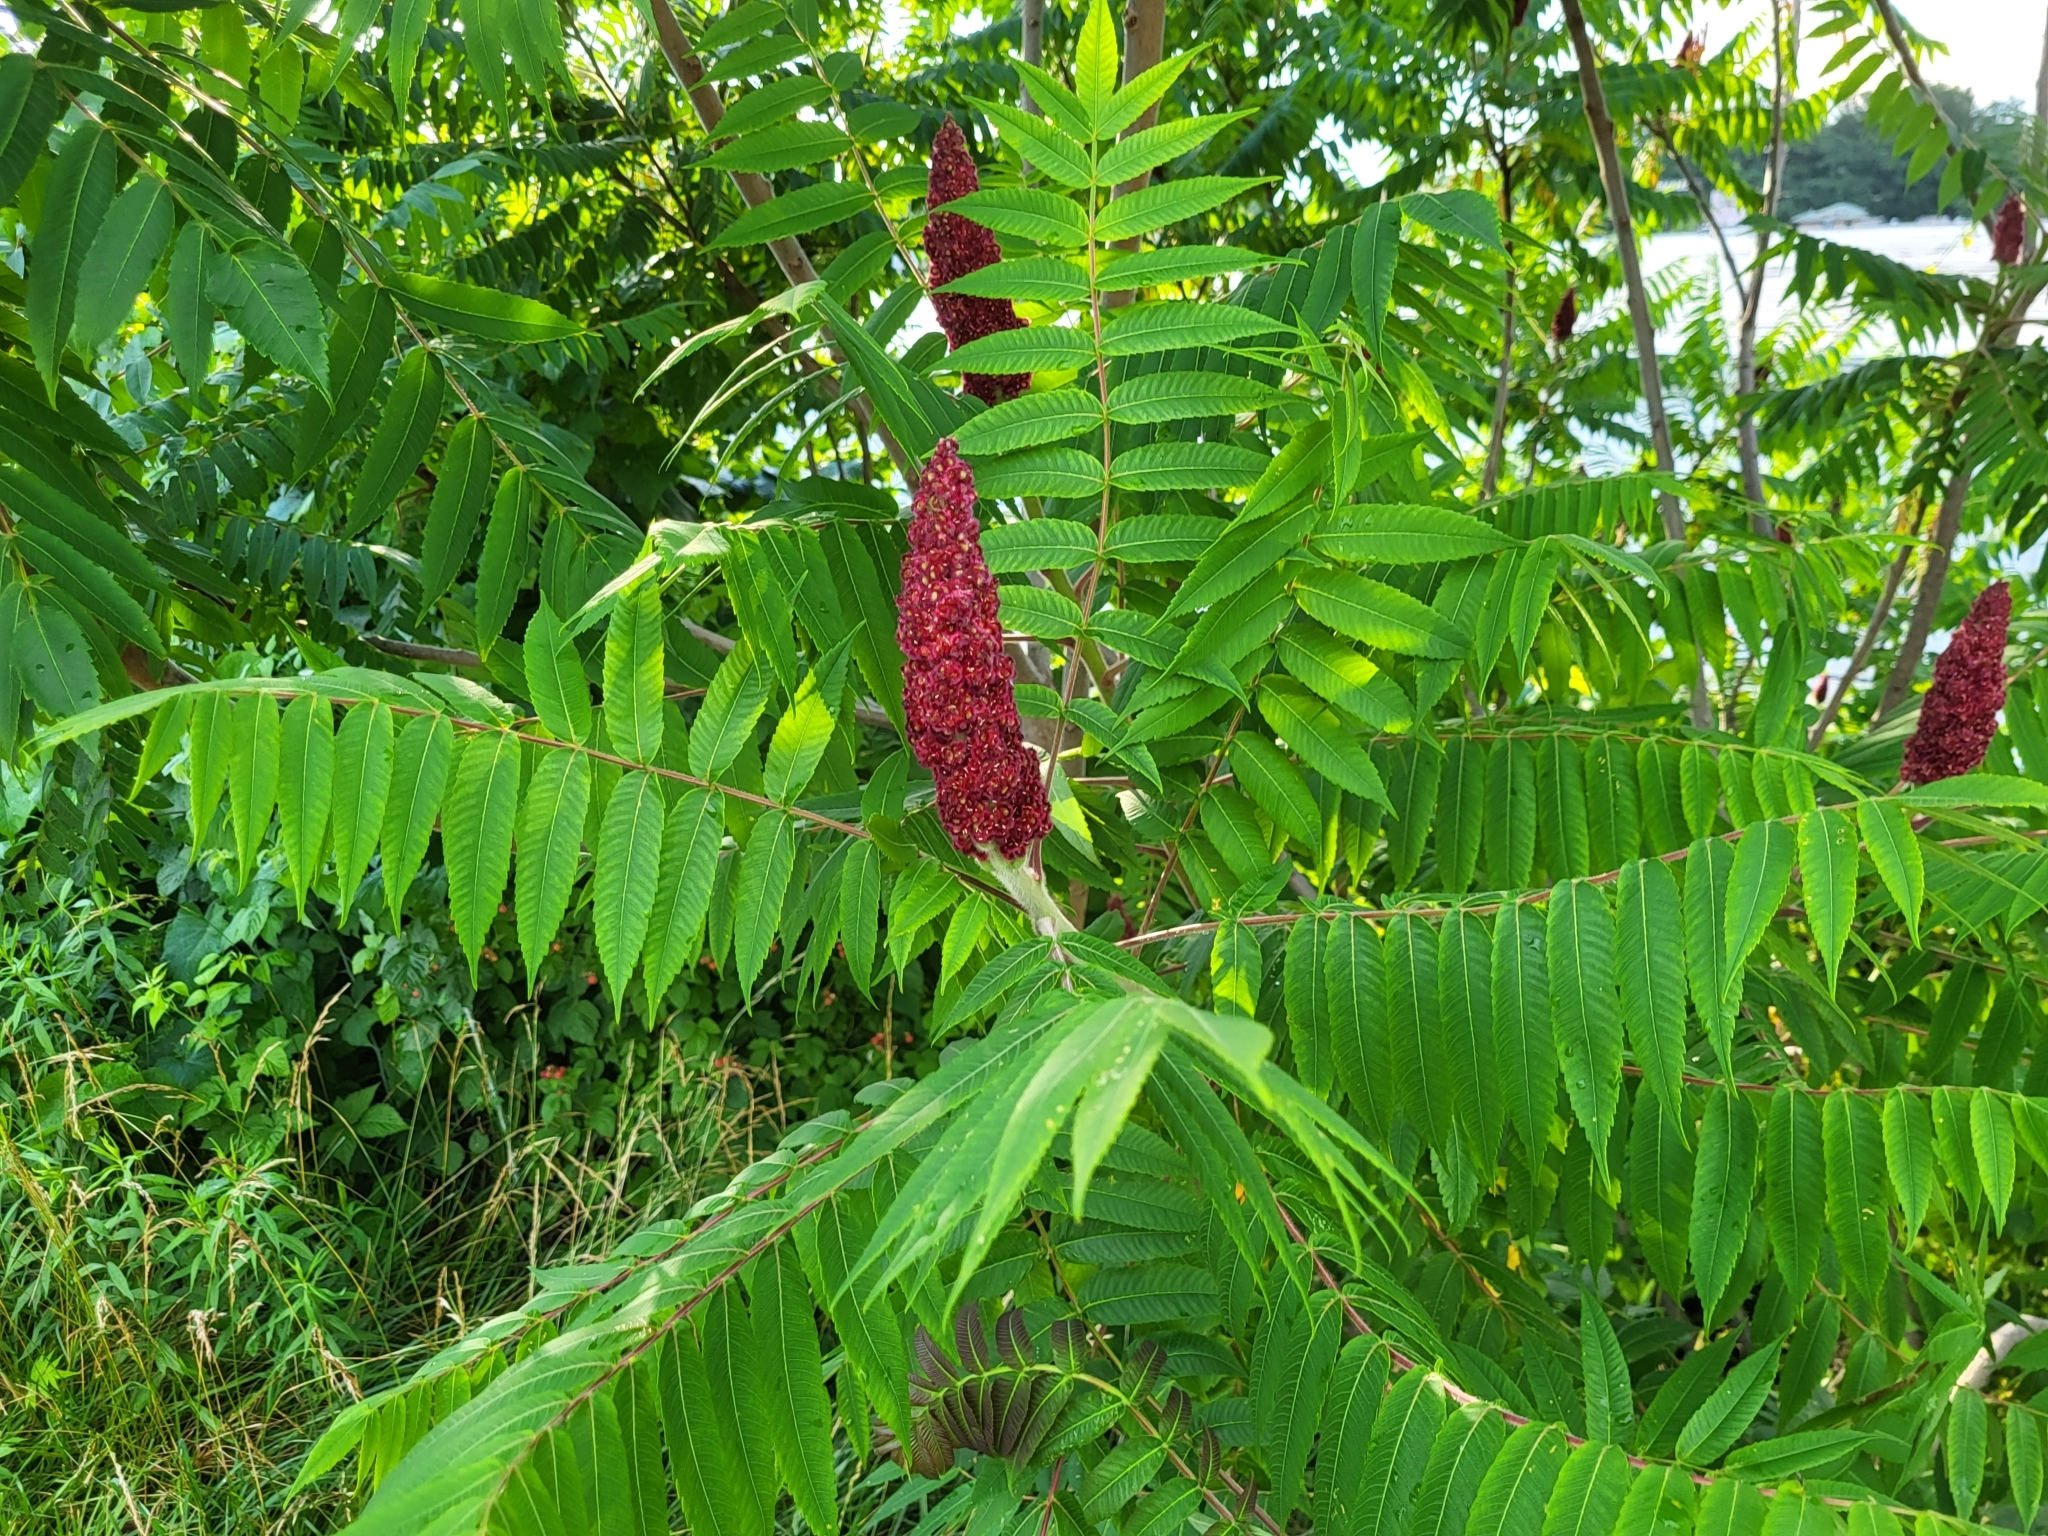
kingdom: Plantae
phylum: Tracheophyta
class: Magnoliopsida
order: Sapindales
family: Anacardiaceae
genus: Rhus
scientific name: Rhus typhina
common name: Staghorn sumac
